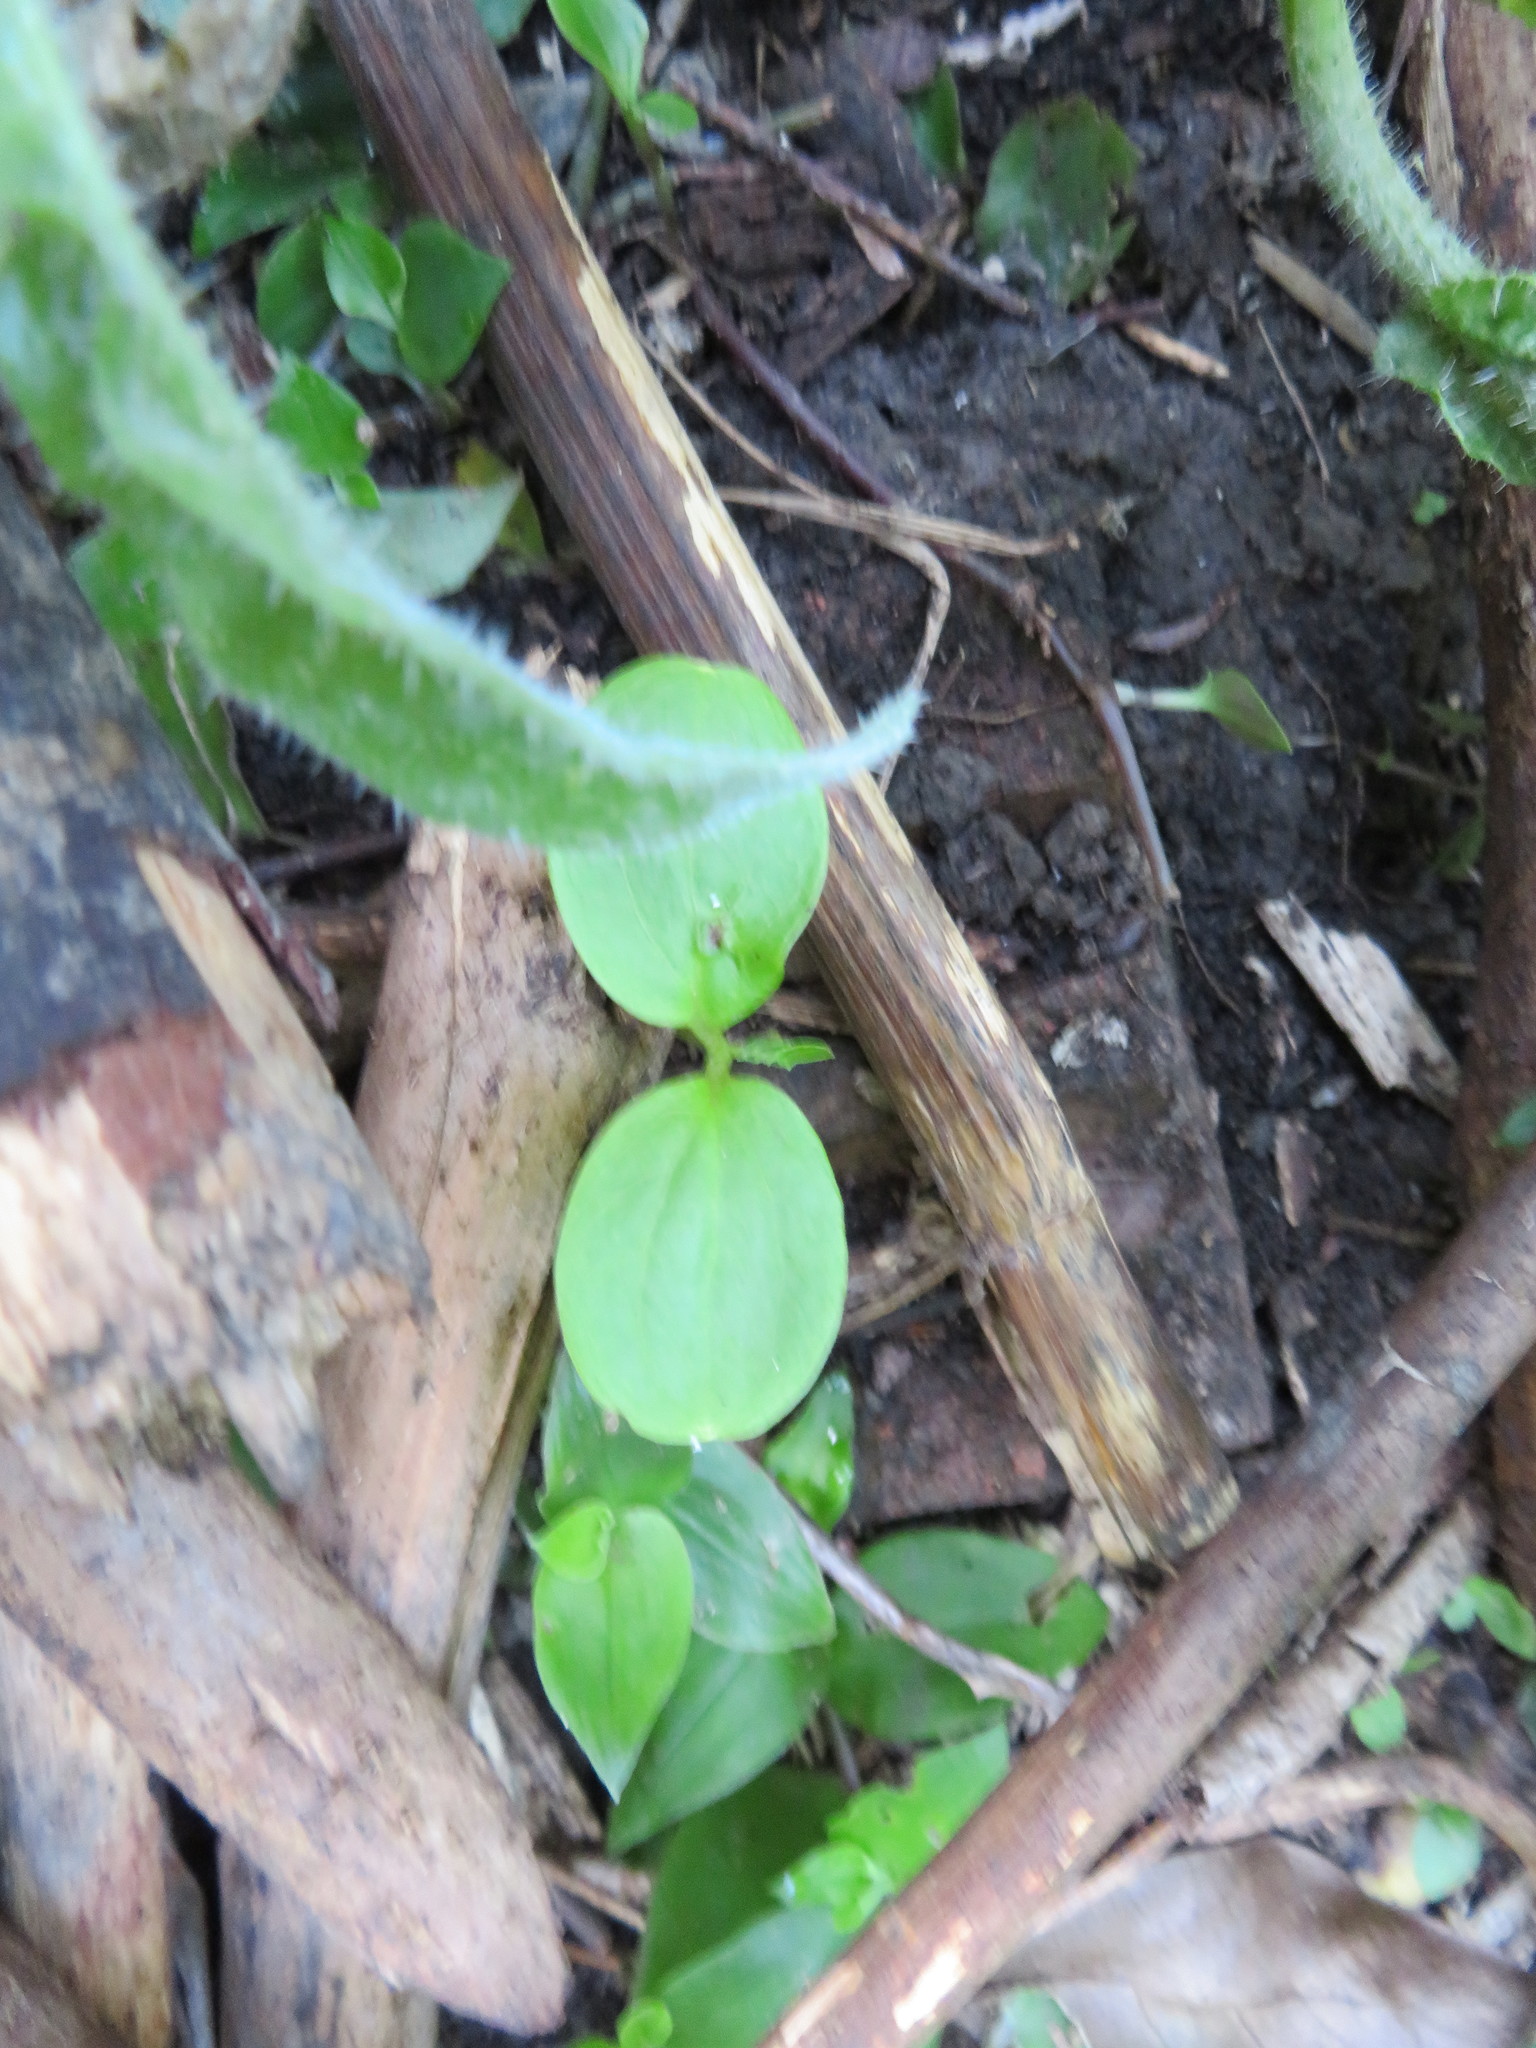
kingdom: Plantae
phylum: Tracheophyta
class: Magnoliopsida
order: Geraniales
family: Melianthaceae
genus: Melianthus
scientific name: Melianthus major
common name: Honey-flower
